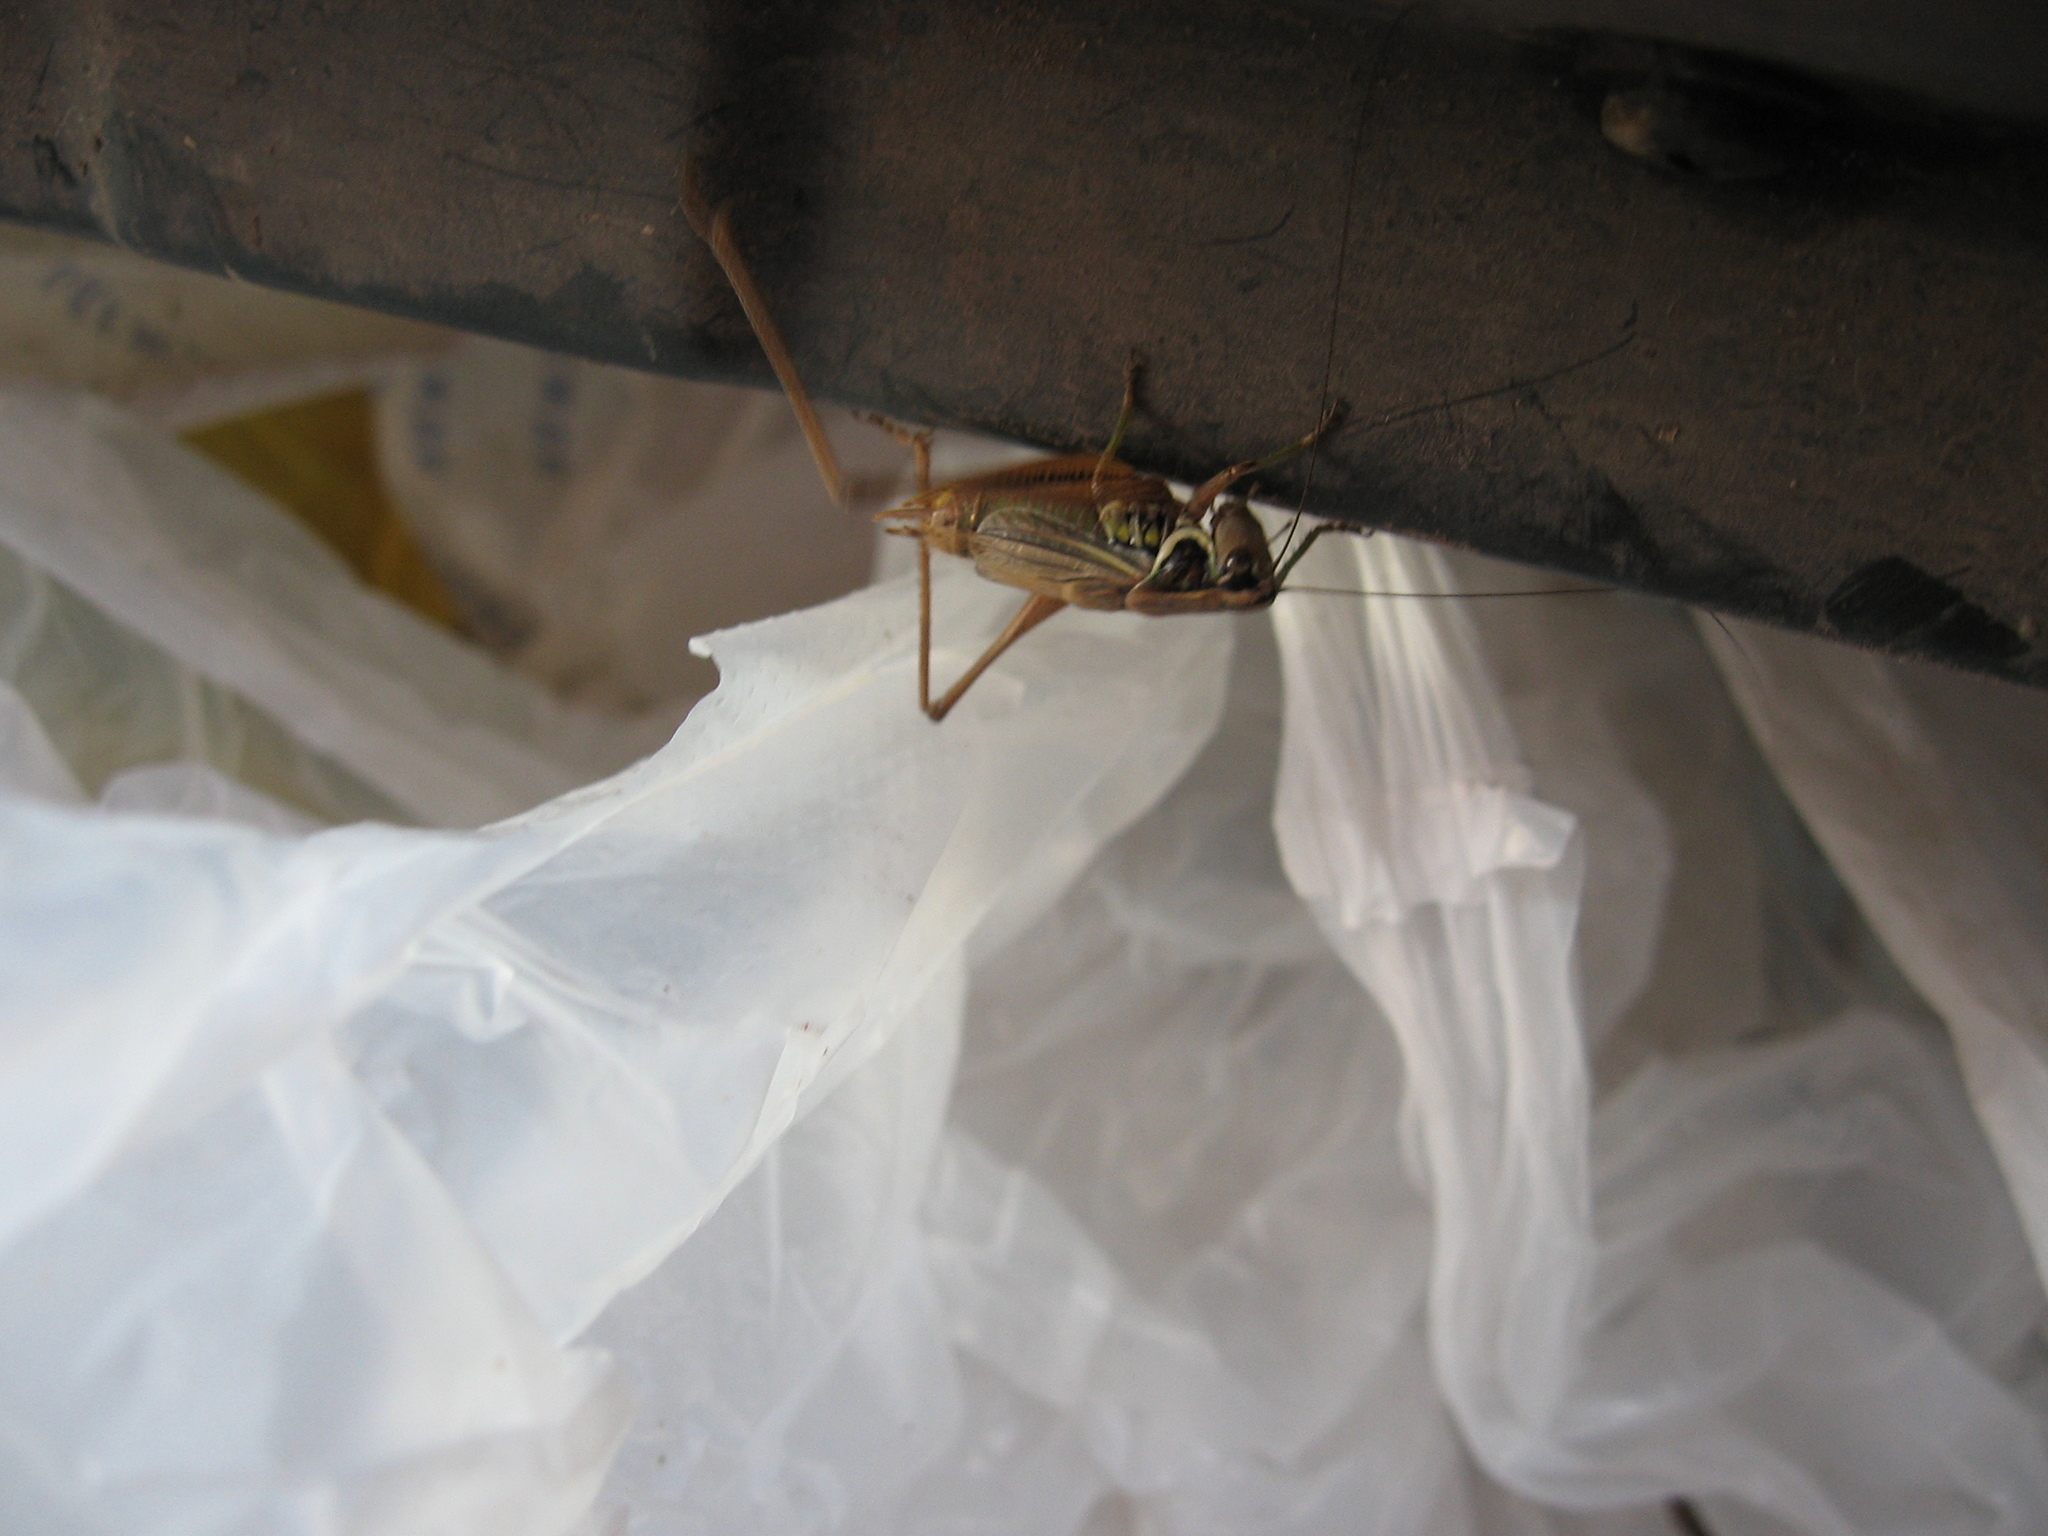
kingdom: Animalia
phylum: Arthropoda
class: Insecta
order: Orthoptera
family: Tettigoniidae
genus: Roeseliana
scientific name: Roeseliana roeselii
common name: Roesel's bush cricket
